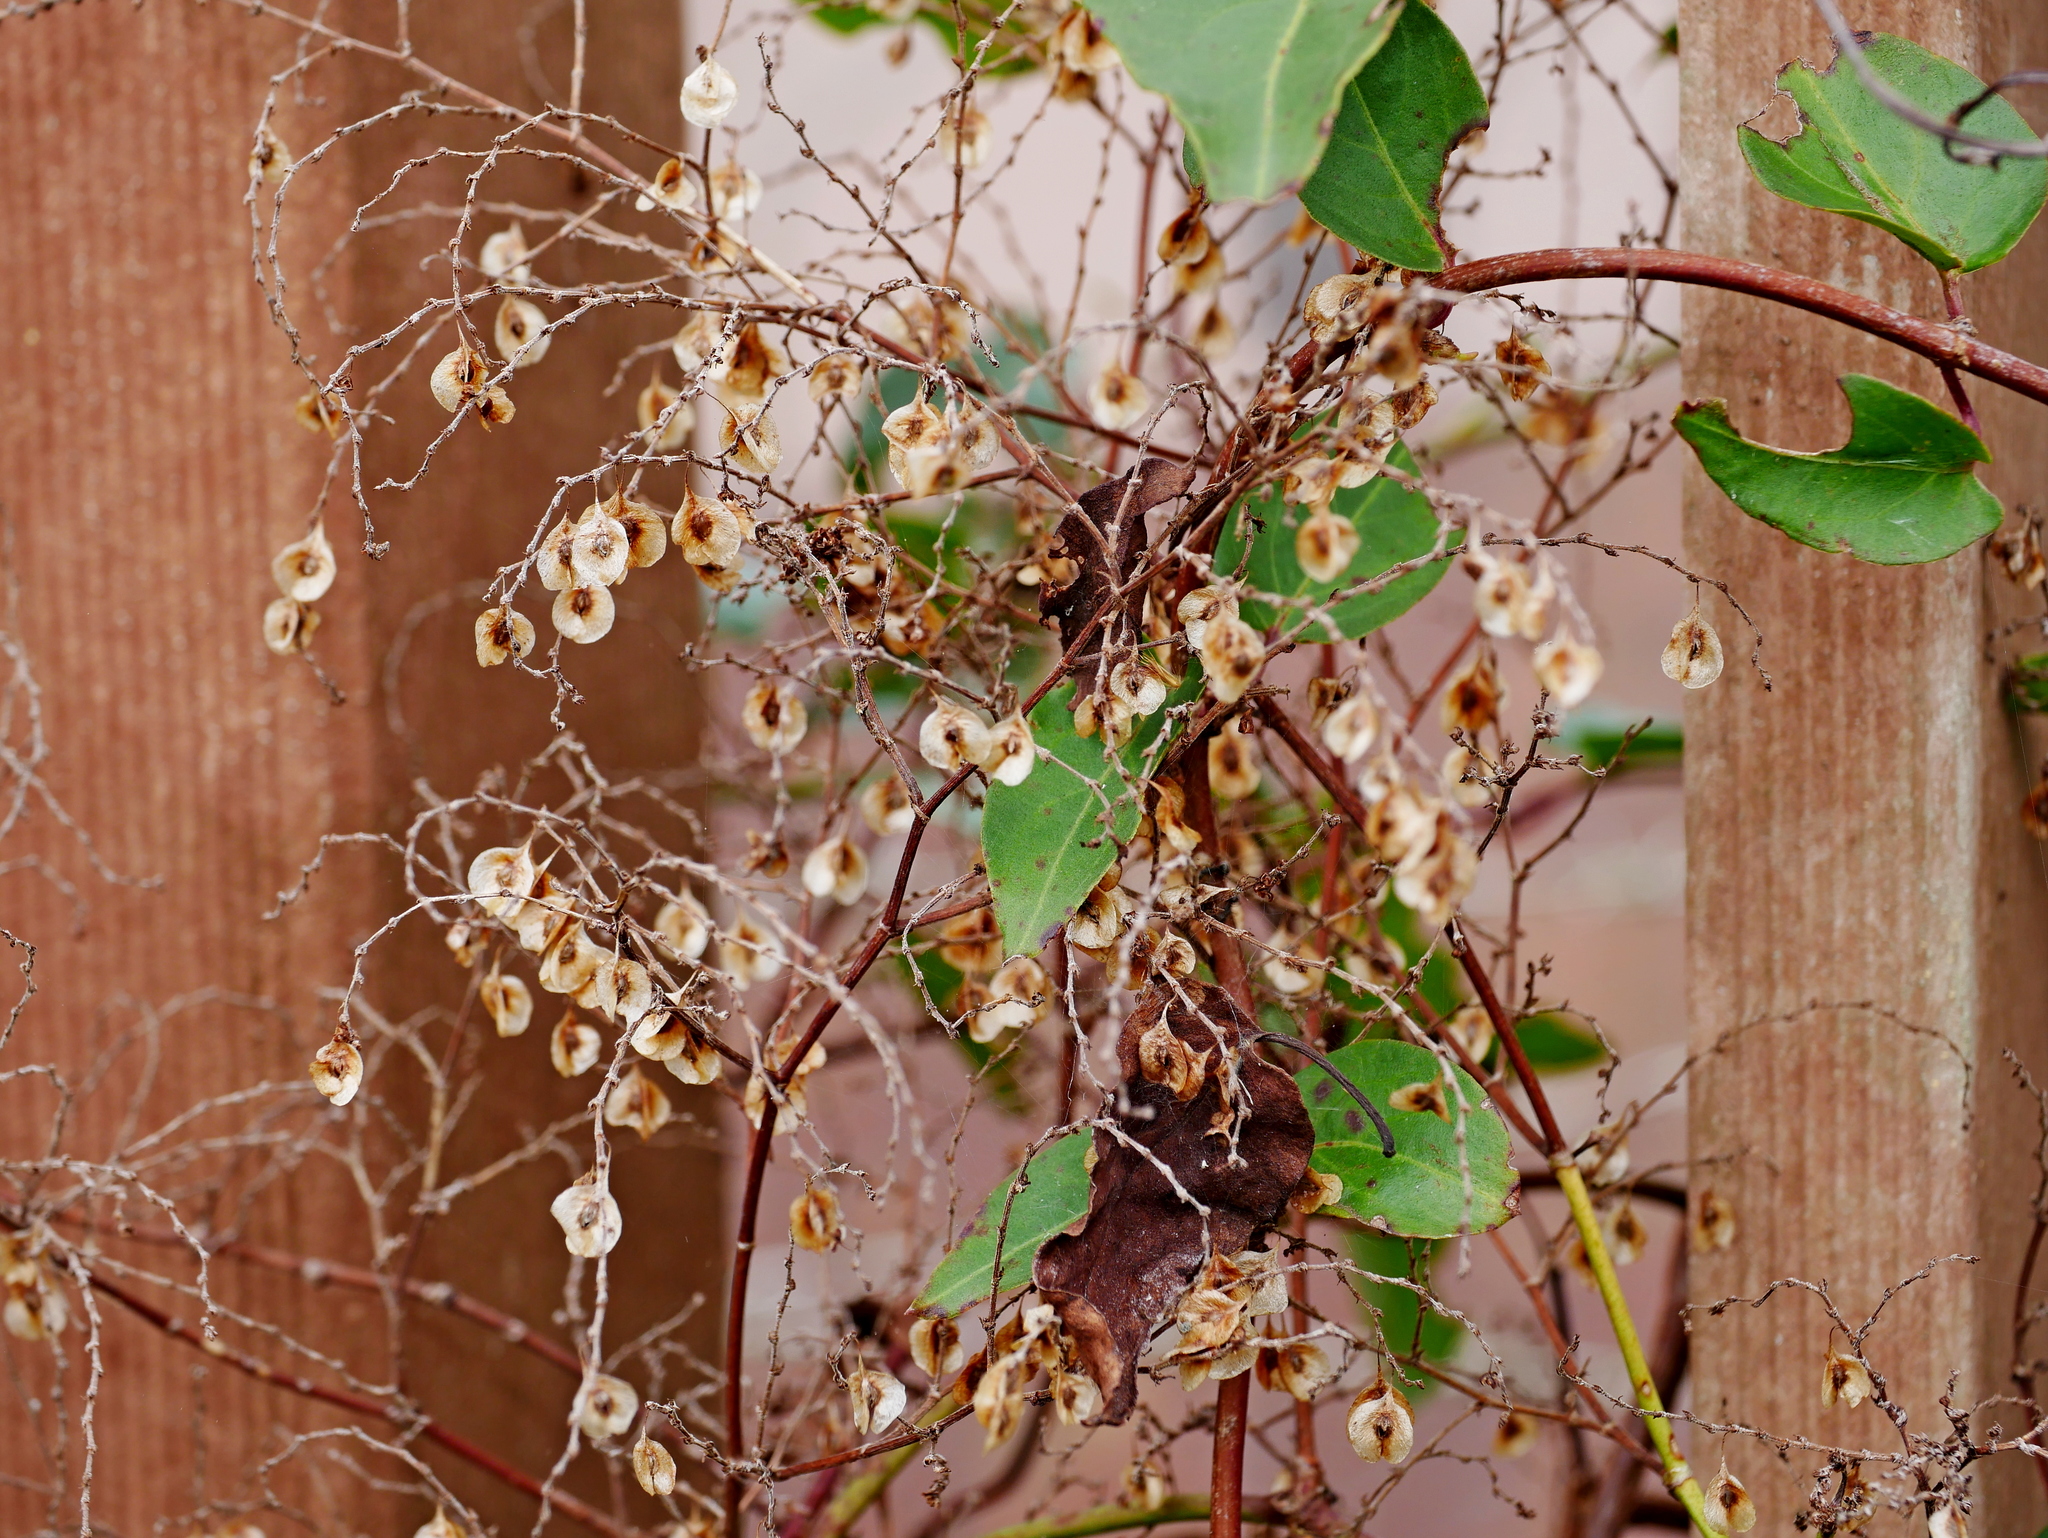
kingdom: Plantae
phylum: Tracheophyta
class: Magnoliopsida
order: Caryophyllales
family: Polygonaceae
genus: Reynoutria
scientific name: Reynoutria multiflora
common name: Chinese fleeceflower
